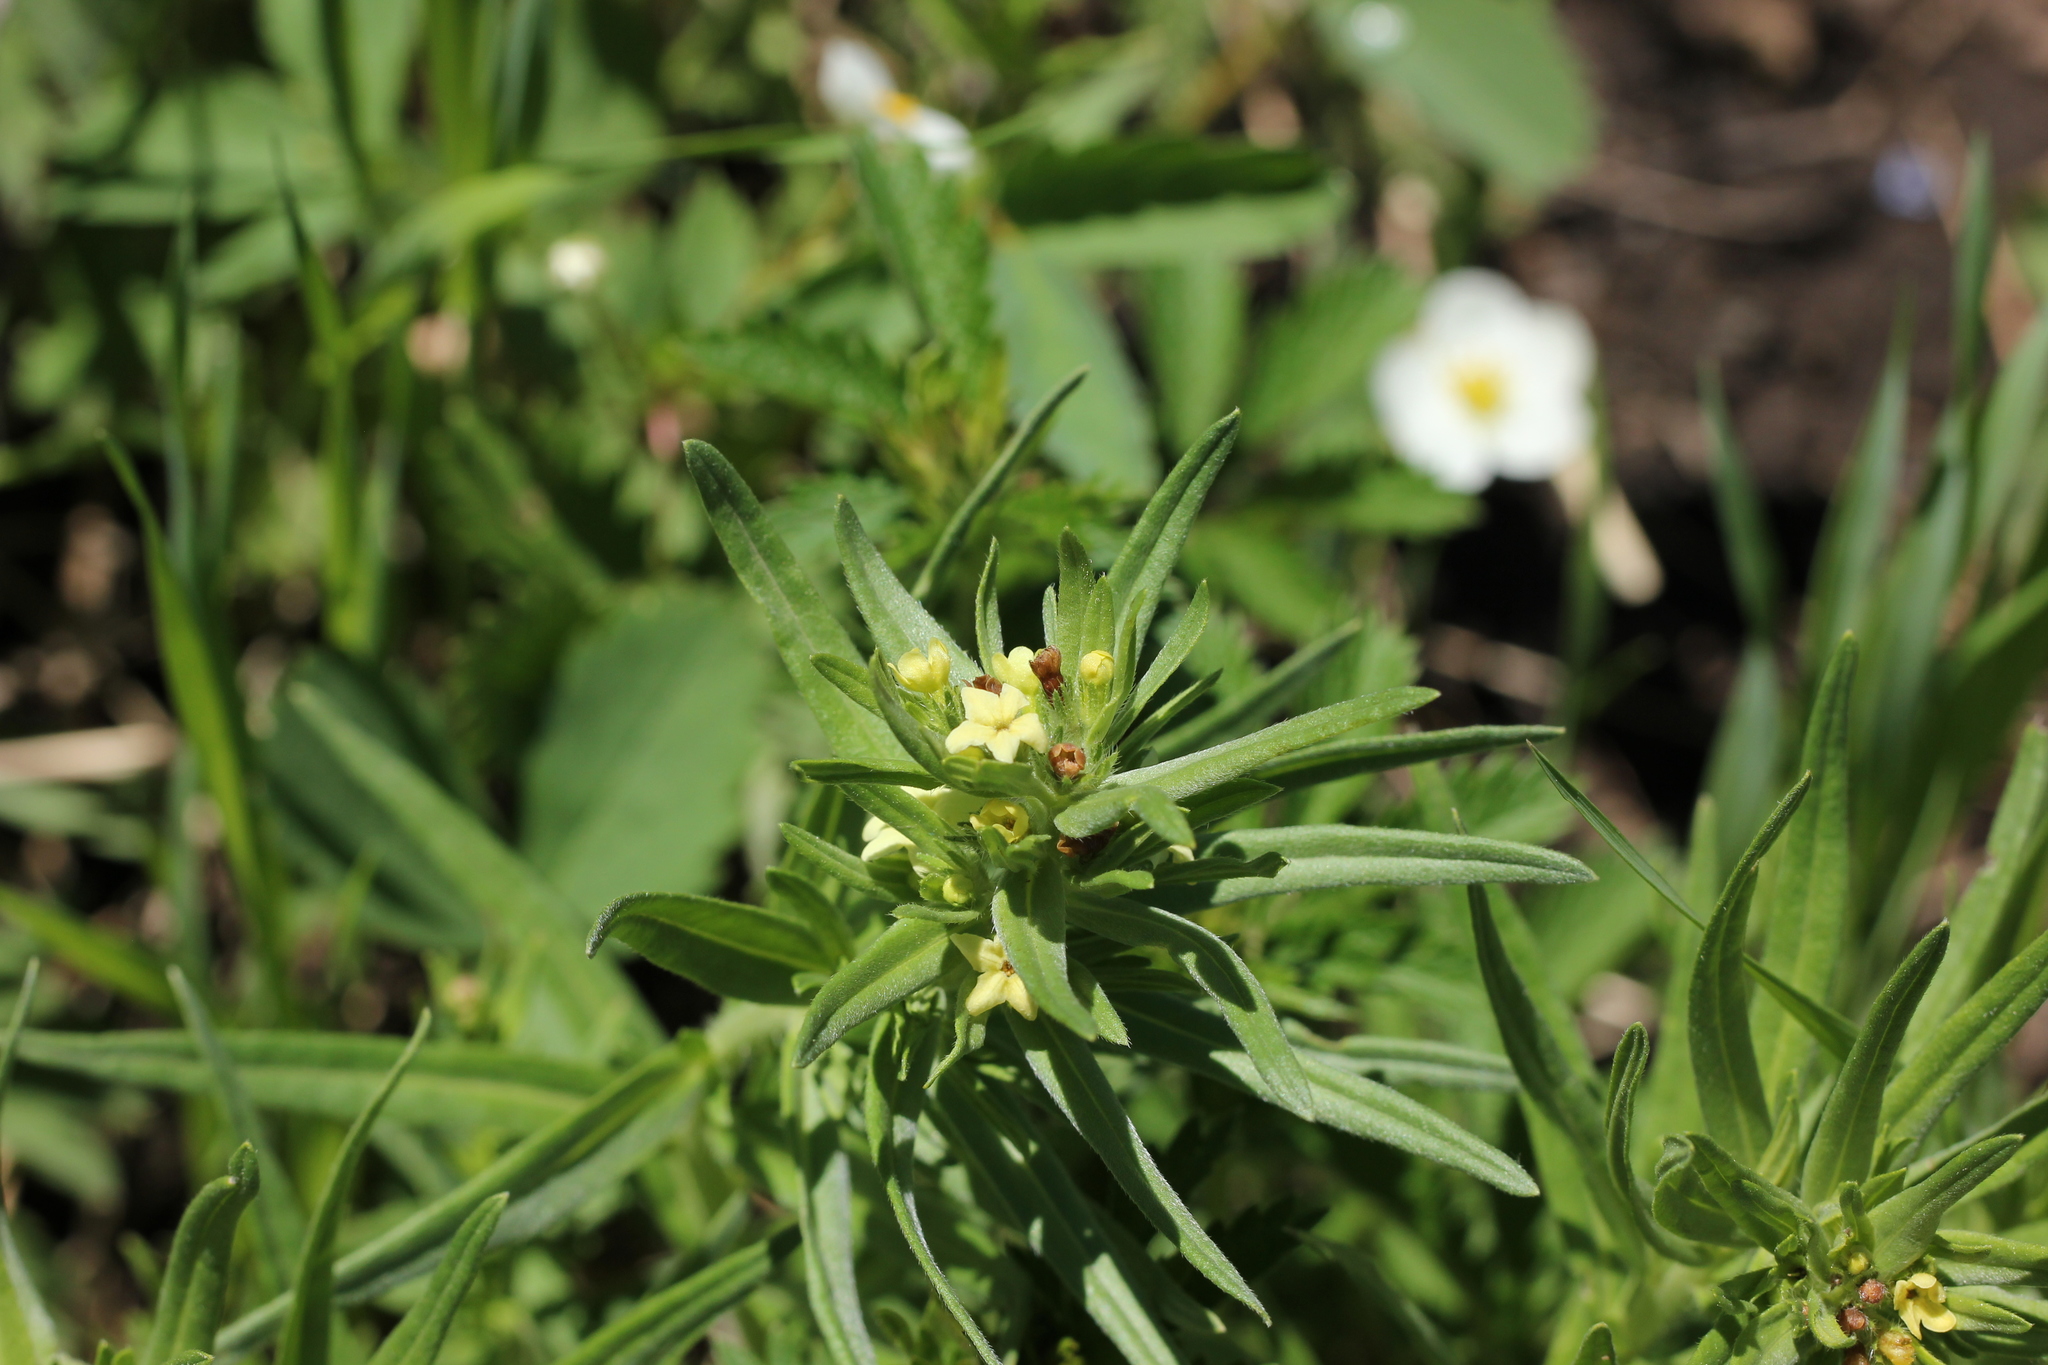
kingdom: Plantae
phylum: Tracheophyta
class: Magnoliopsida
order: Boraginales
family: Boraginaceae
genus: Lithospermum
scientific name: Lithospermum ruderale
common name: Western gromwell
